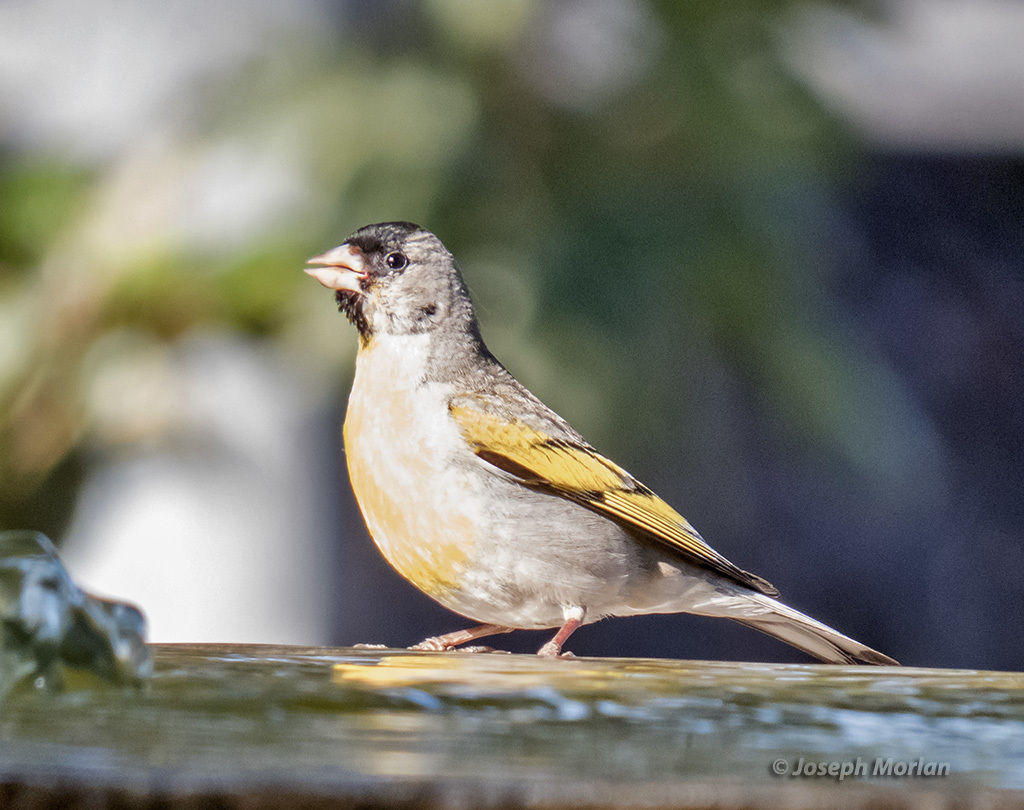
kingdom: Animalia
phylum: Chordata
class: Aves
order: Passeriformes
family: Fringillidae
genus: Spinus
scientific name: Spinus lawrencei
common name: Lawrence's goldfinch
